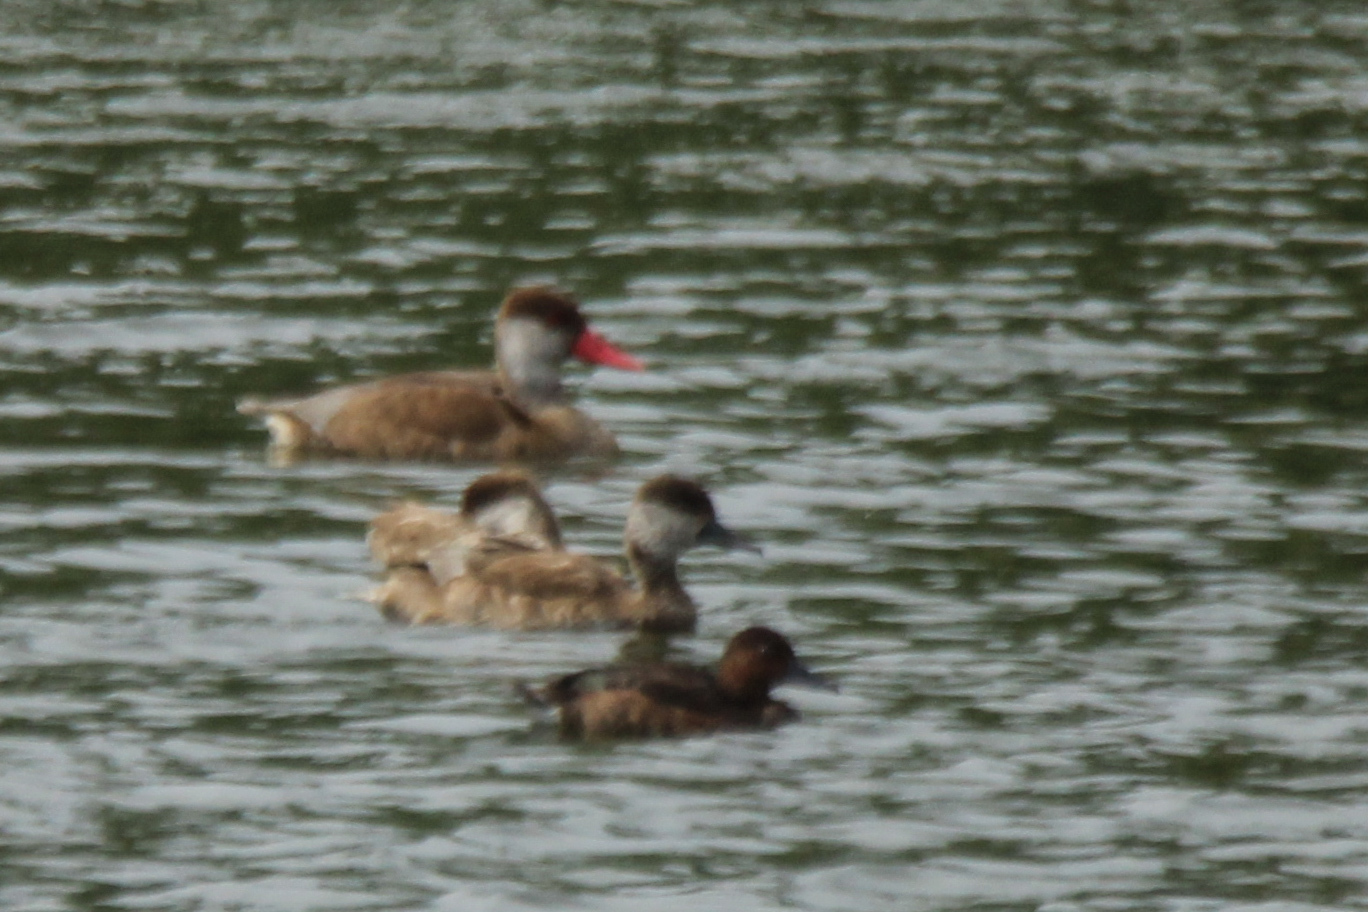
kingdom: Animalia
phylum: Chordata
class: Aves
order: Anseriformes
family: Anatidae
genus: Netta
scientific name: Netta rufina
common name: Red-crested pochard
